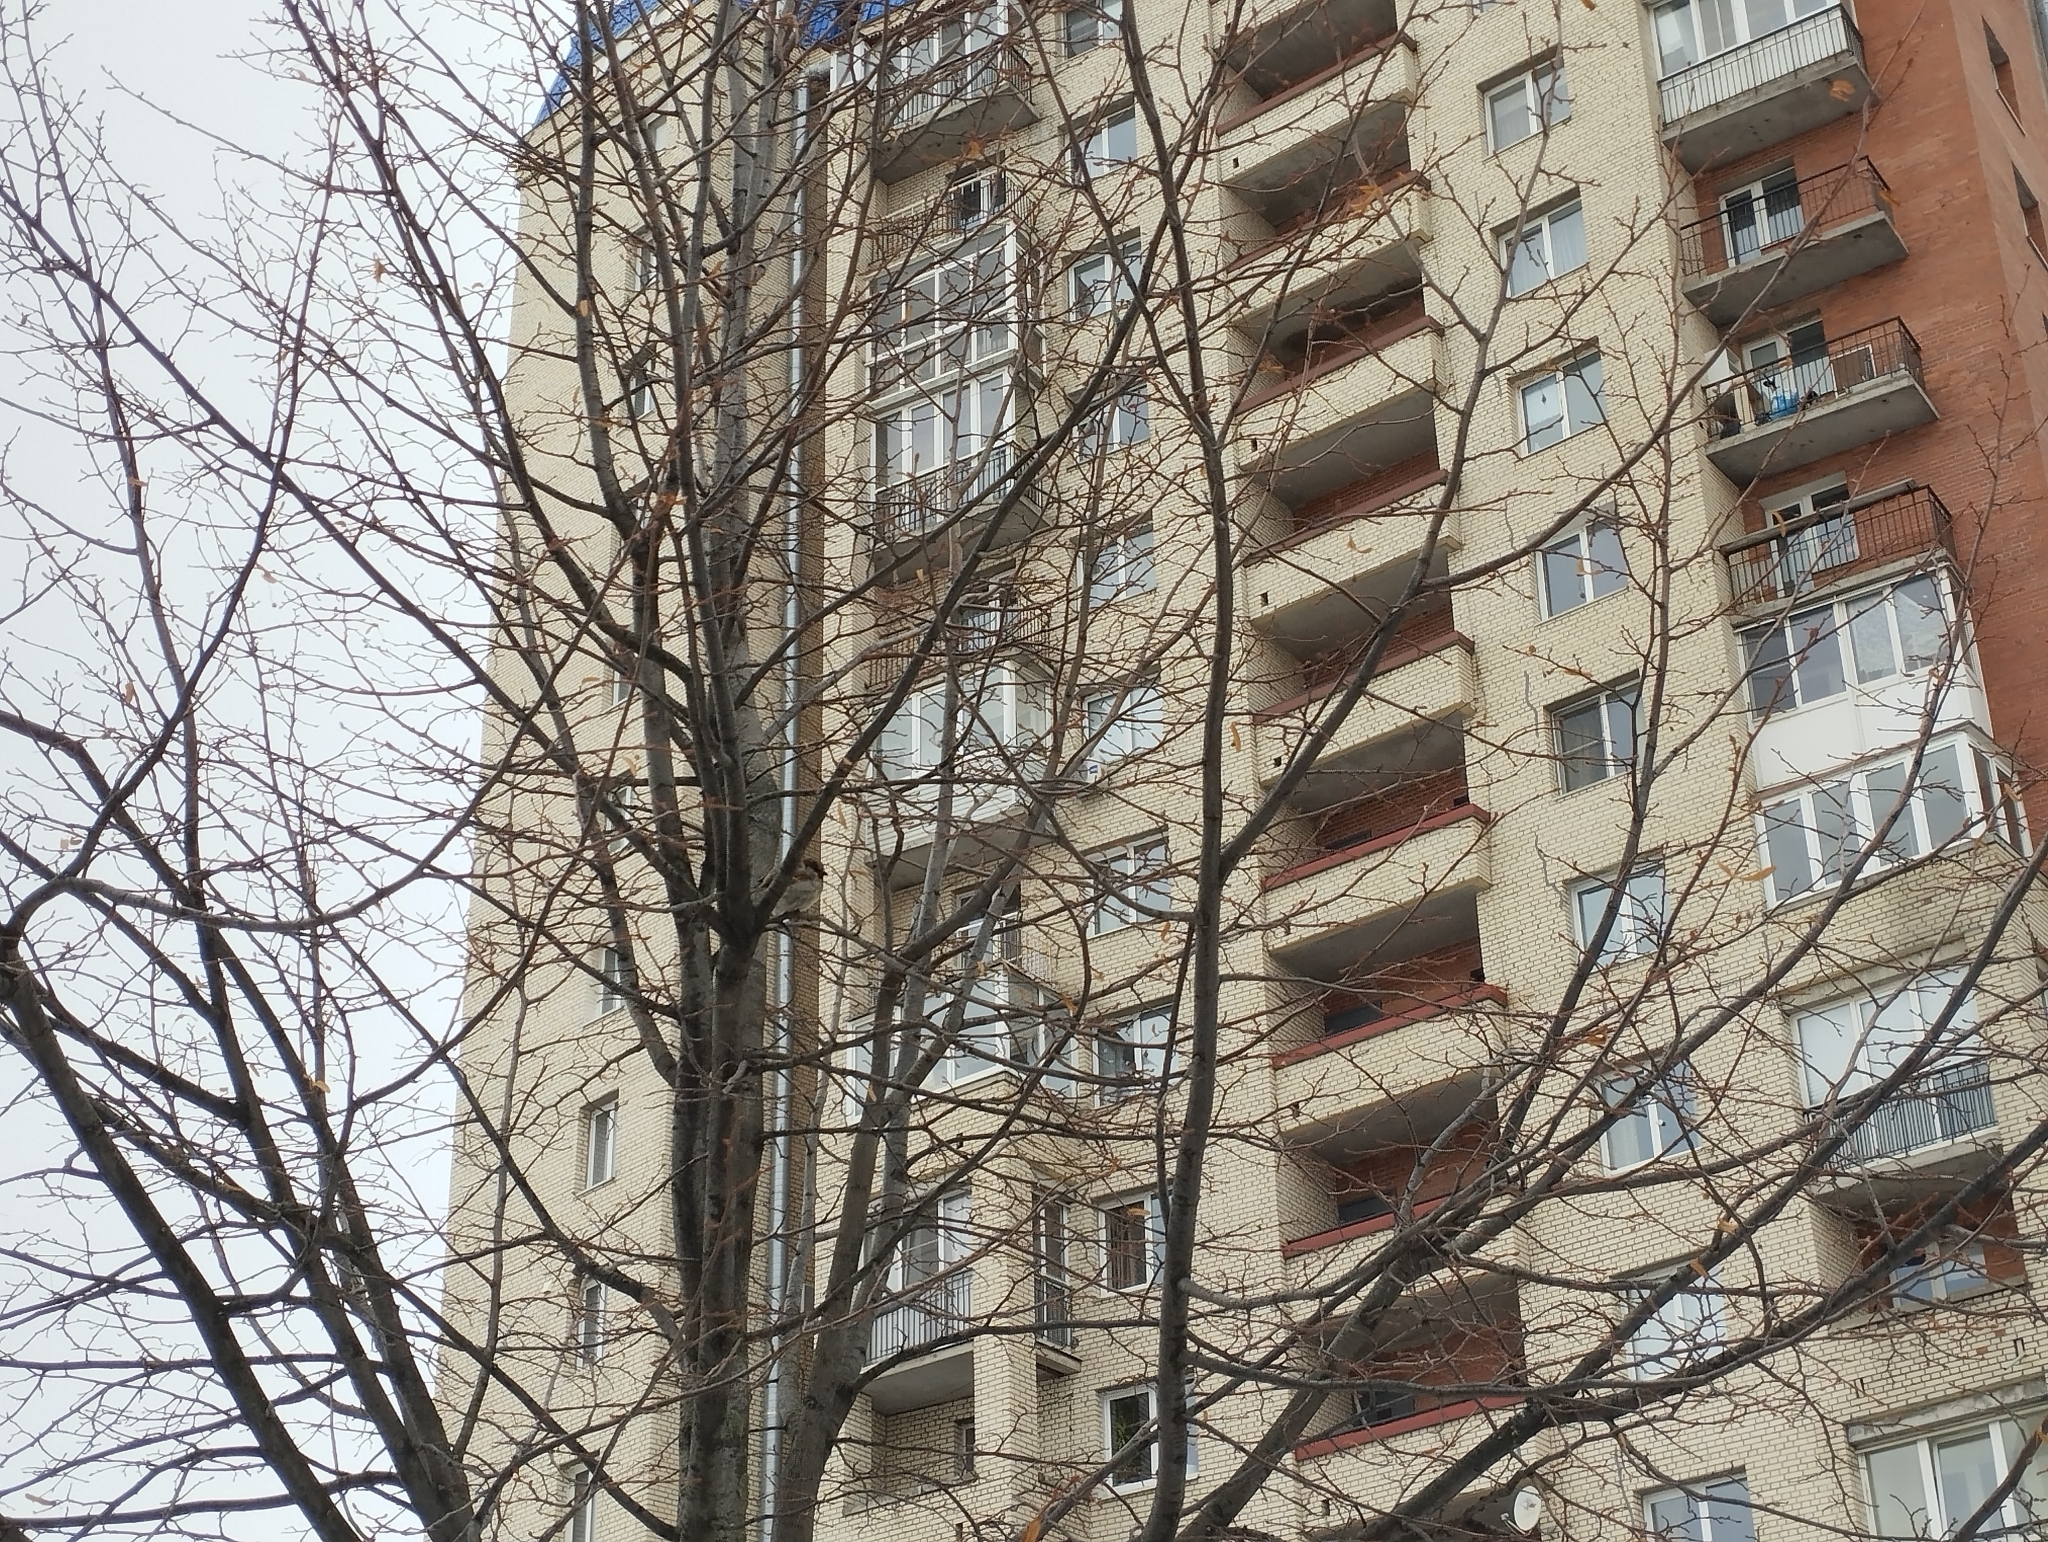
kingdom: Animalia
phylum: Chordata
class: Aves
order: Passeriformes
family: Passeridae
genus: Passer
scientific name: Passer domesticus
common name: House sparrow
